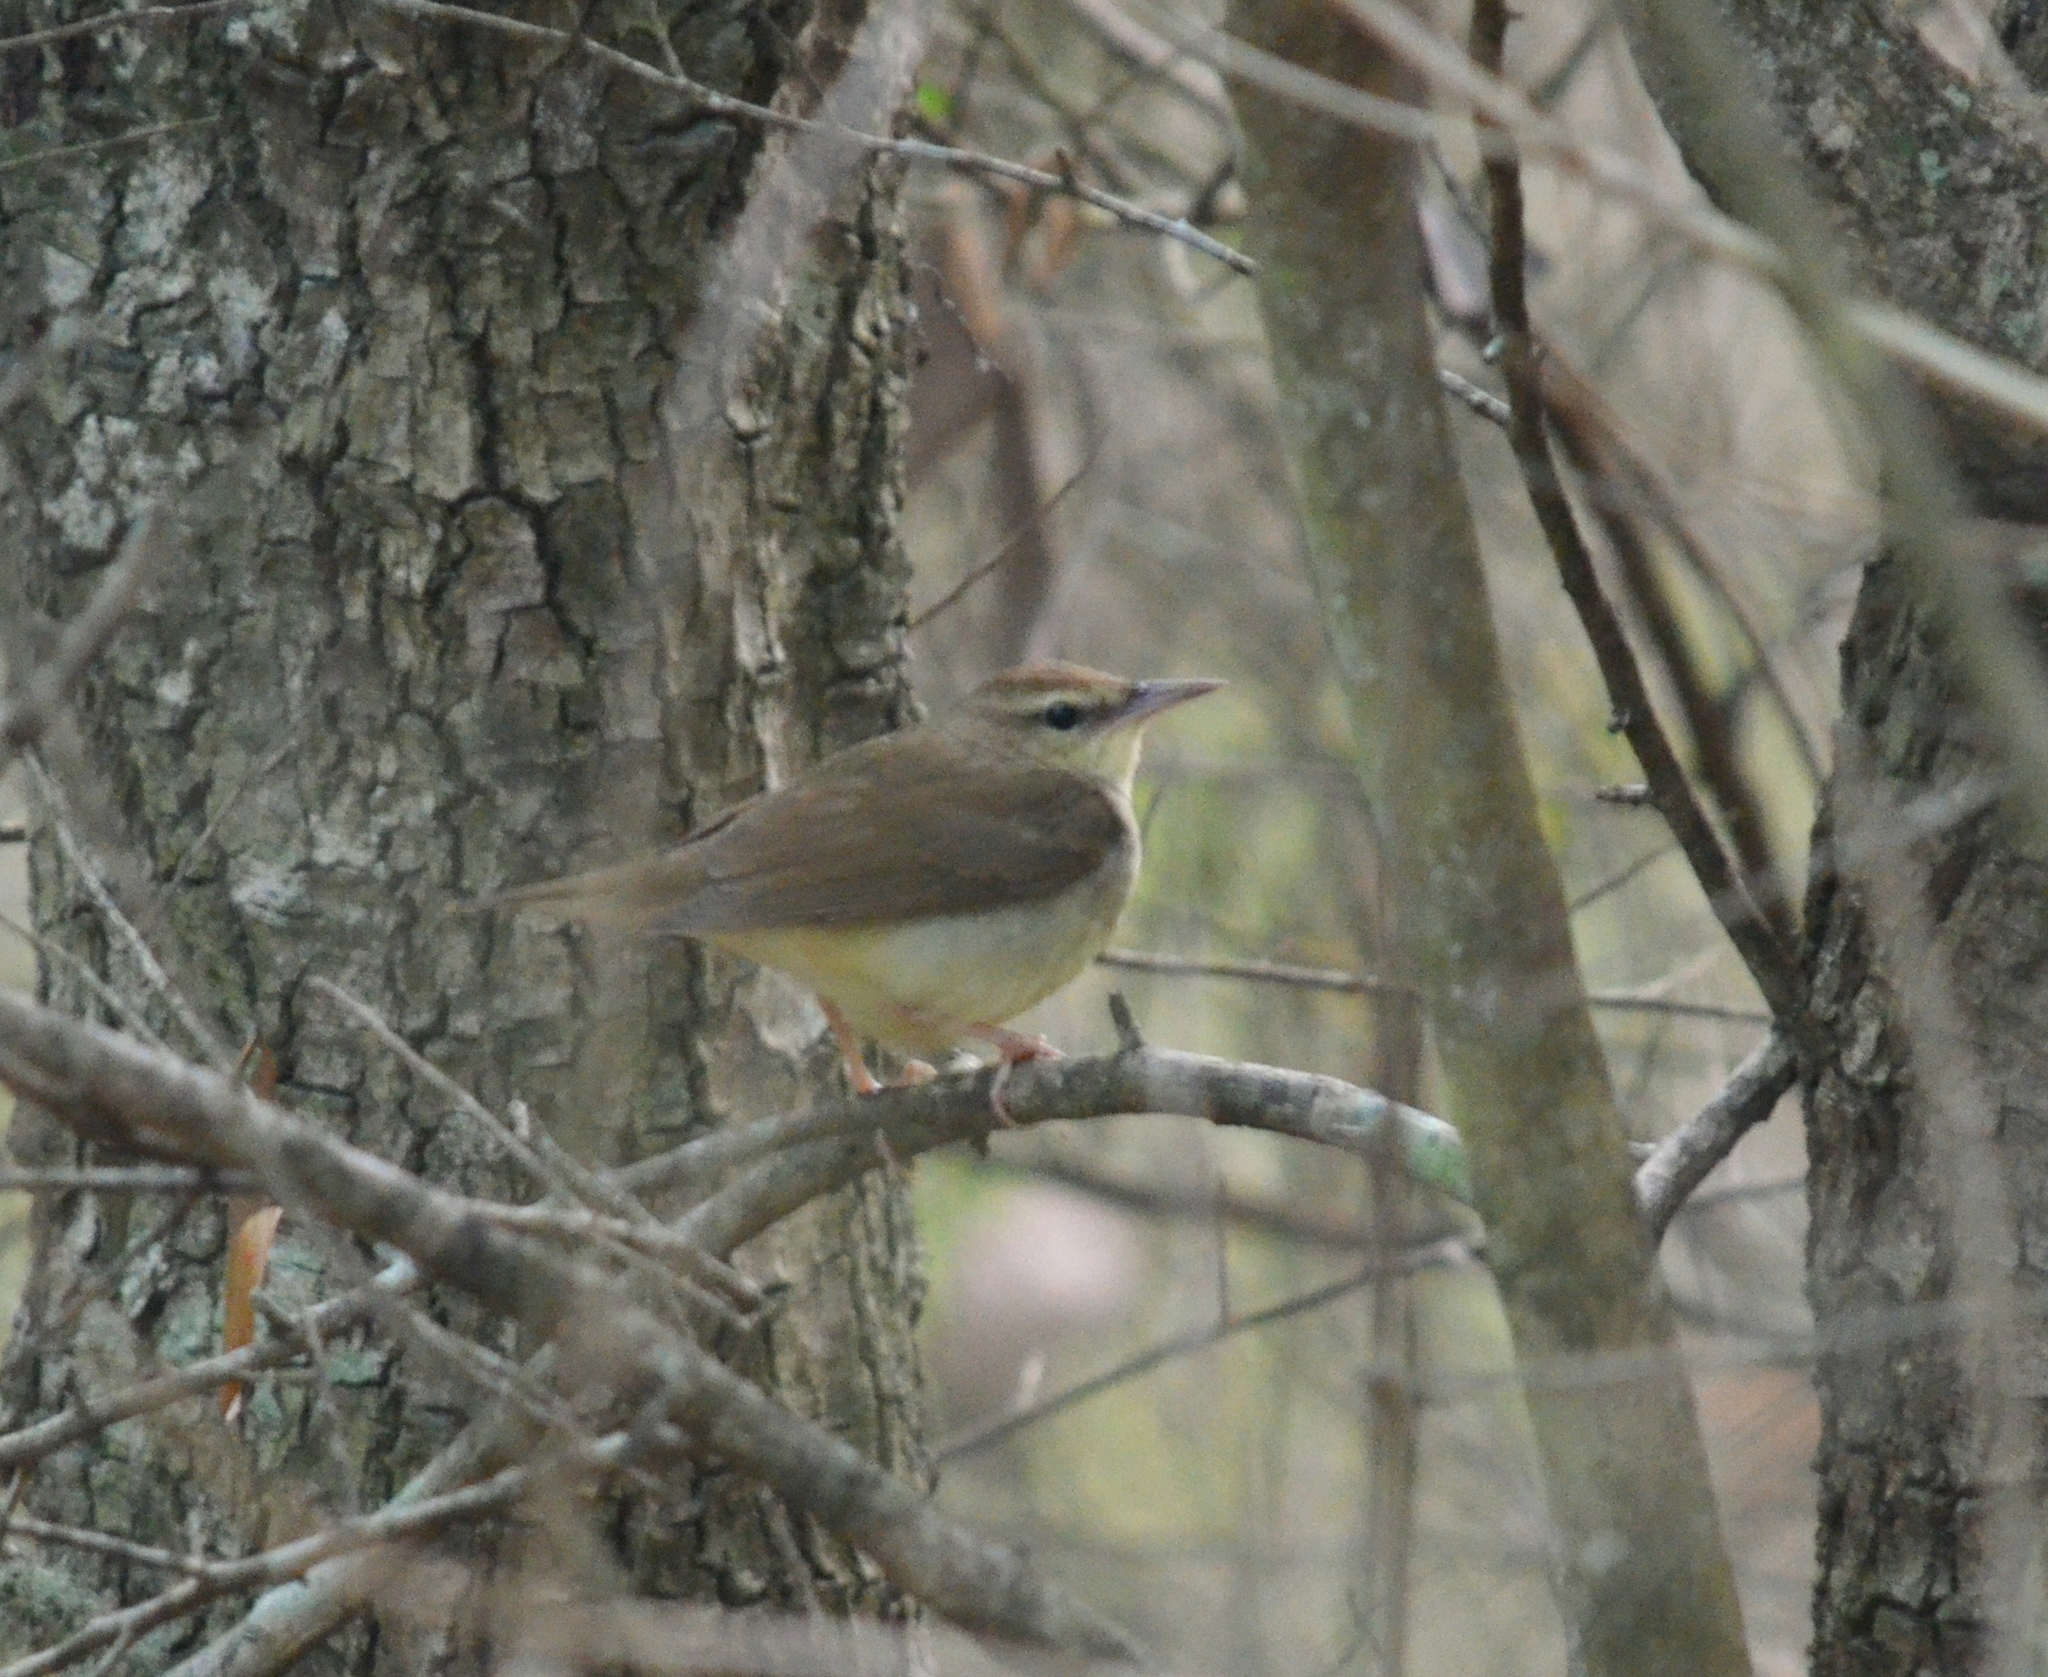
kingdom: Animalia
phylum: Chordata
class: Aves
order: Passeriformes
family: Parulidae
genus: Limnothlypis
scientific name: Limnothlypis swainsonii
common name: Swainson's warbler
